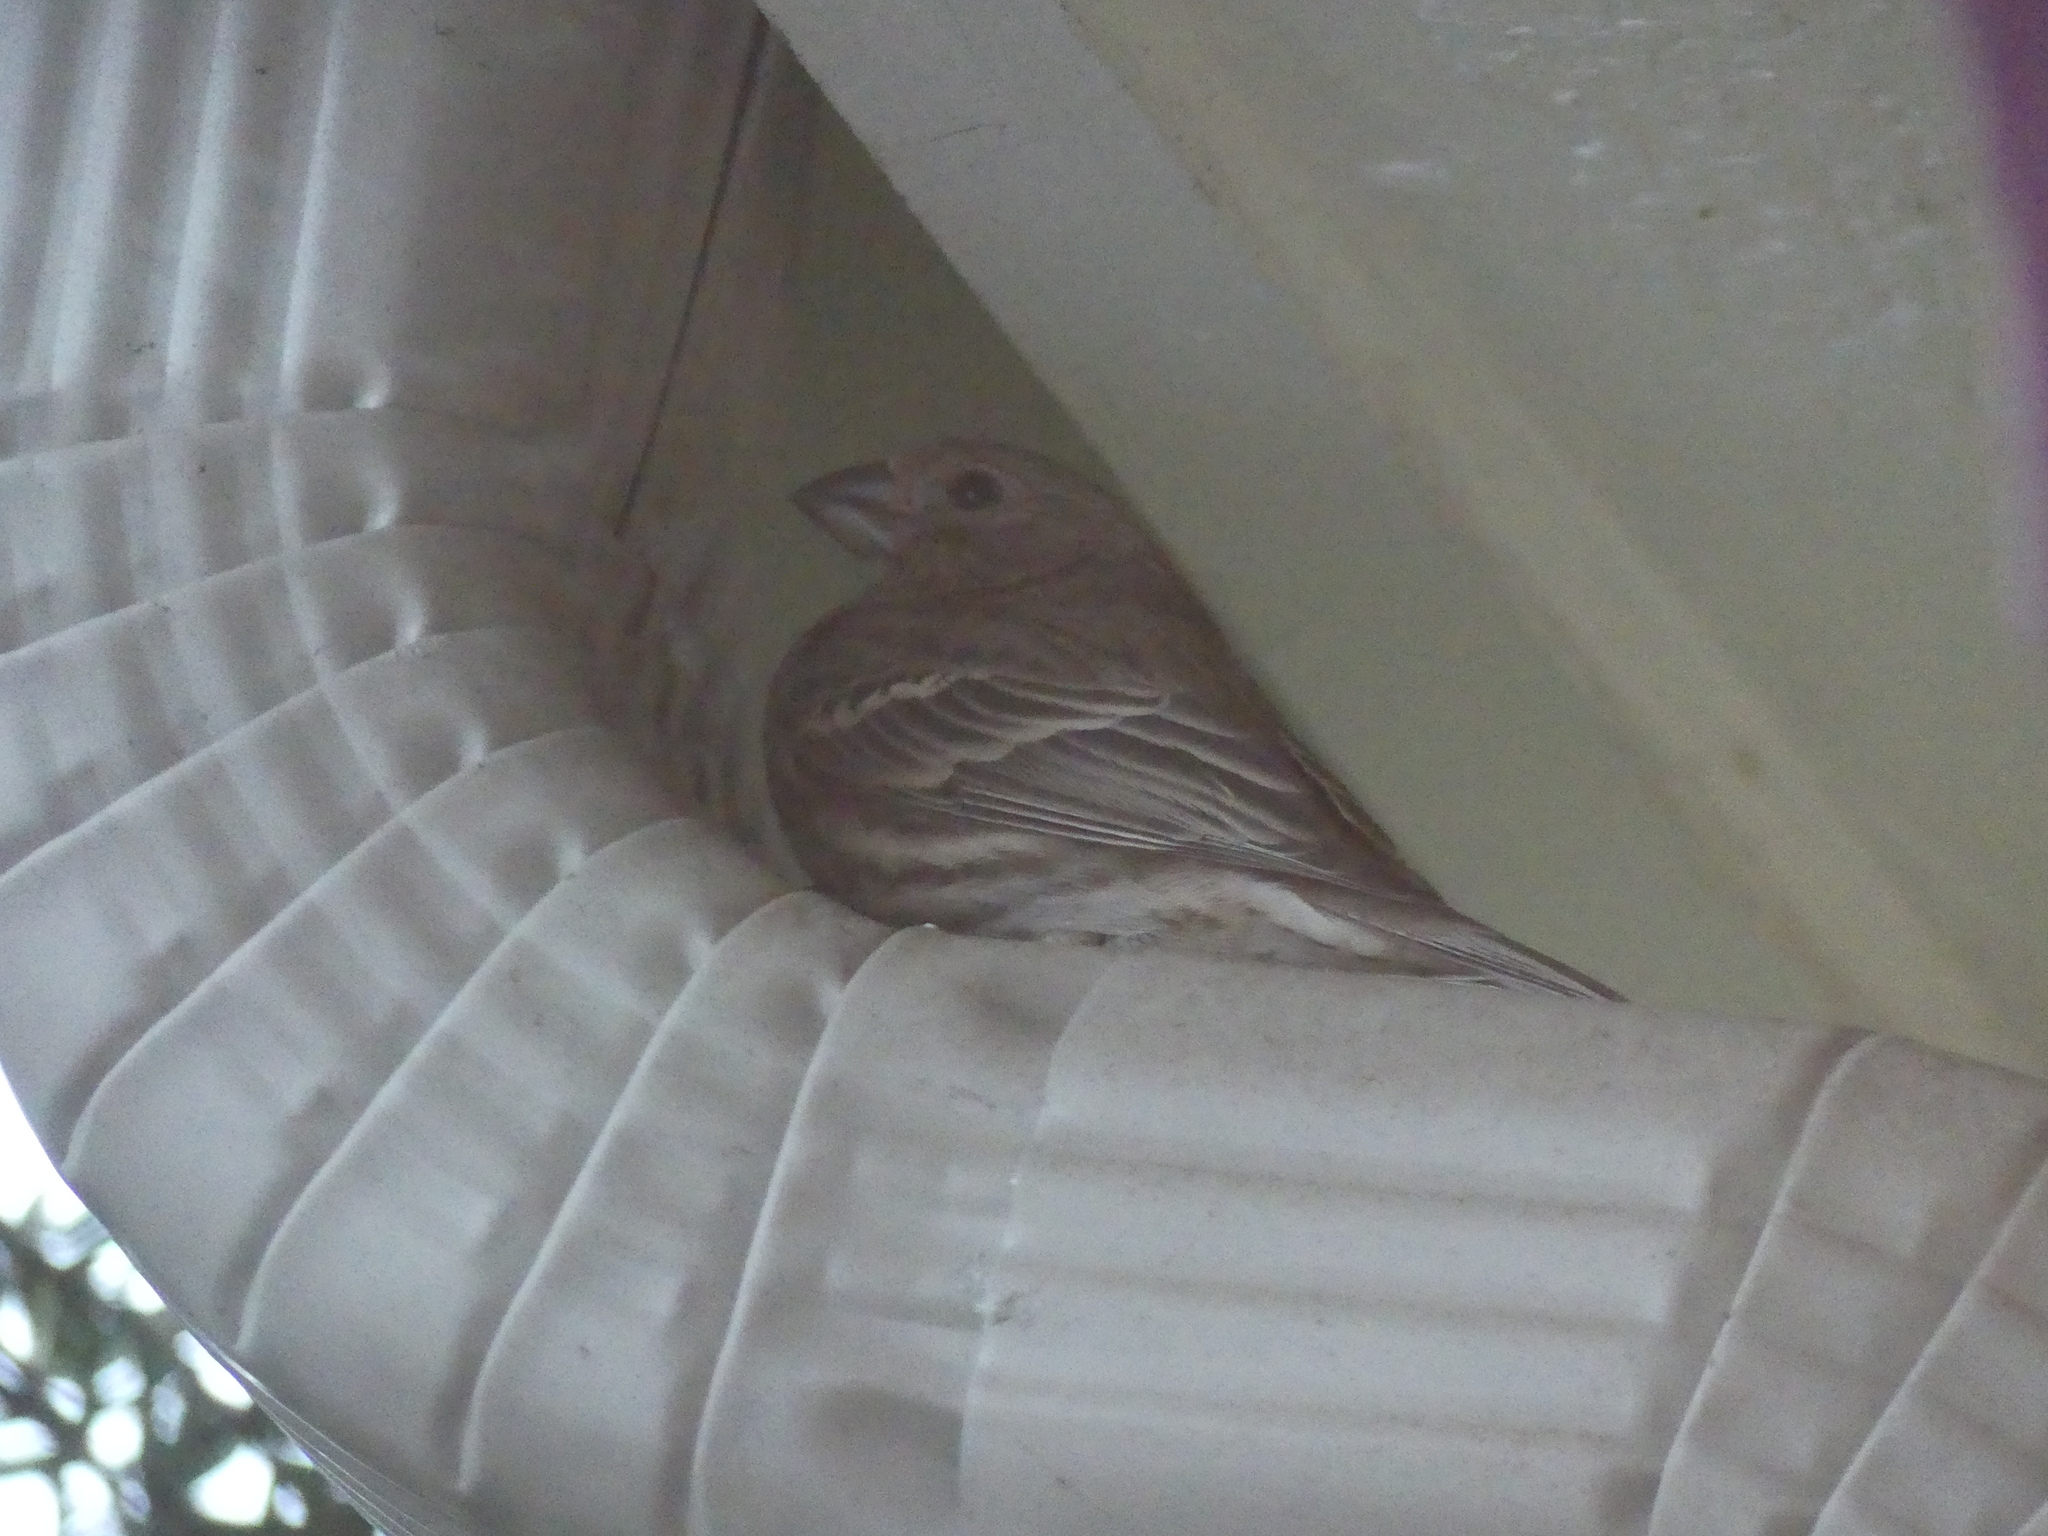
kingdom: Animalia
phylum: Chordata
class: Aves
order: Passeriformes
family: Fringillidae
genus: Haemorhous
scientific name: Haemorhous mexicanus
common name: House finch
